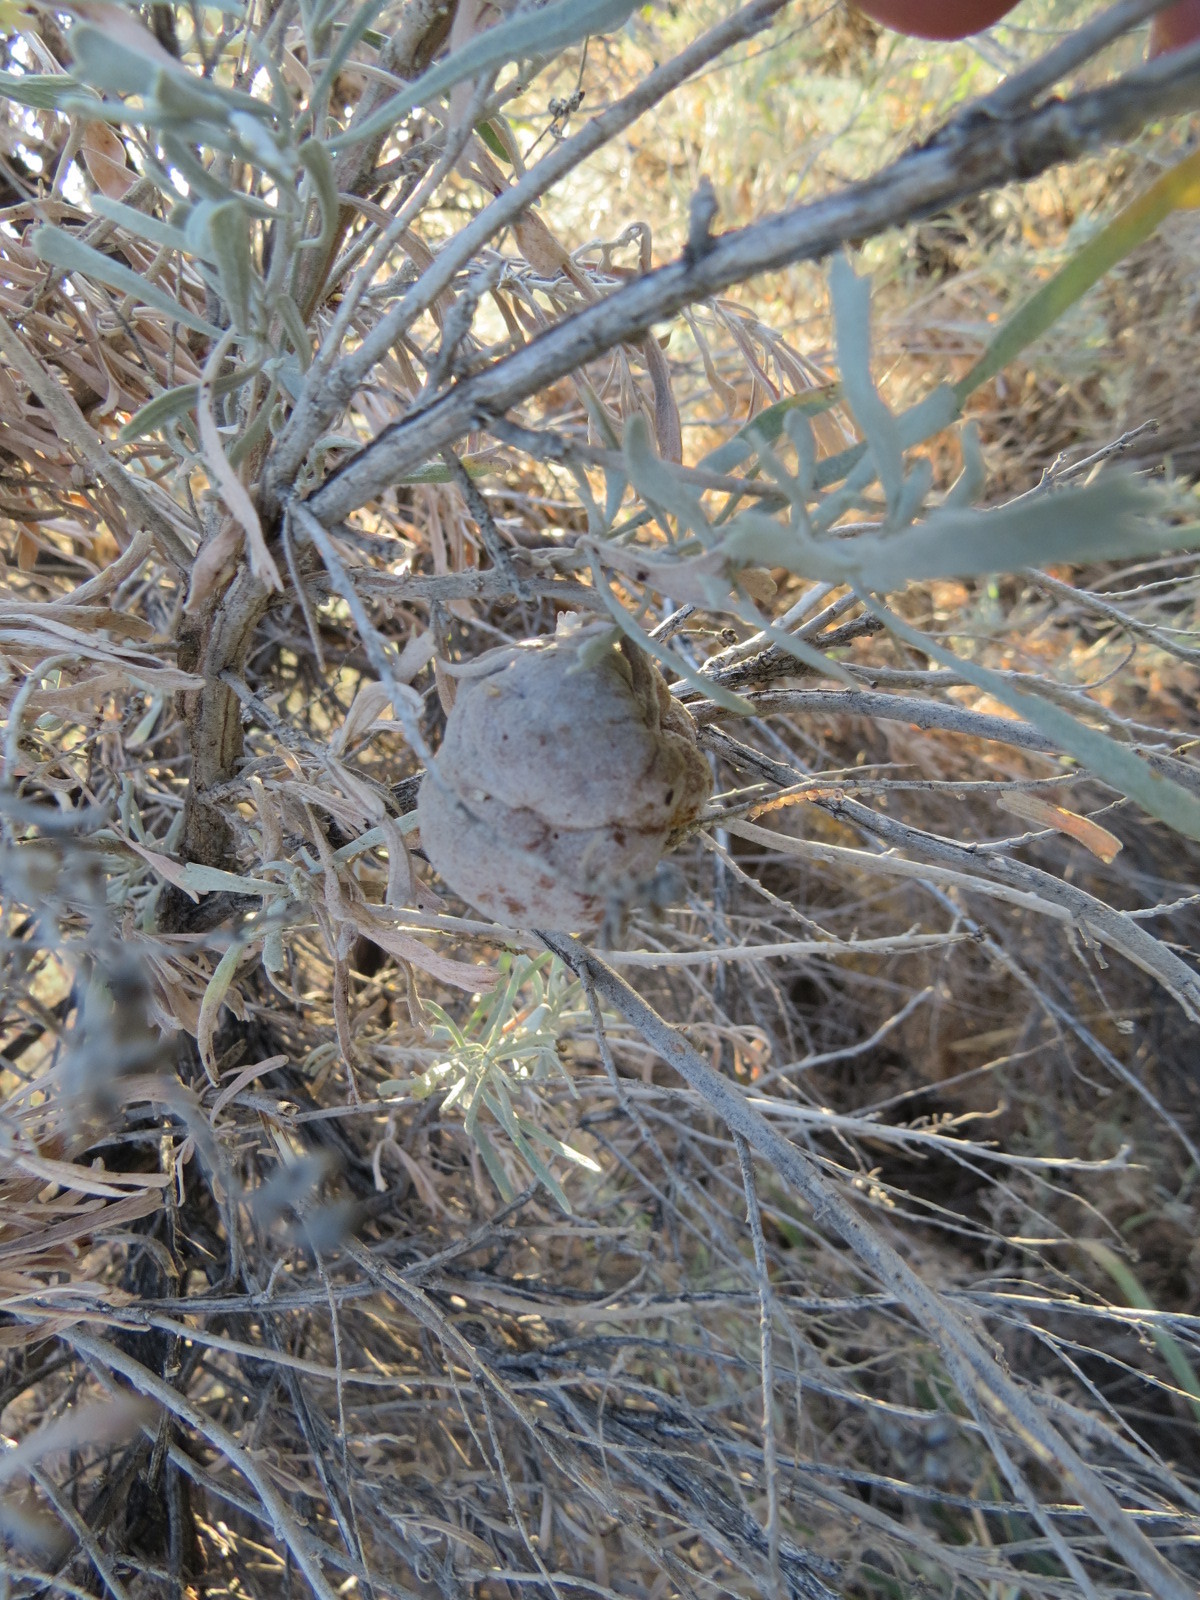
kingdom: Animalia
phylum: Arthropoda
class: Insecta
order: Diptera
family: Cecidomyiidae
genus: Rhopalomyia
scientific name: Rhopalomyia pomum
